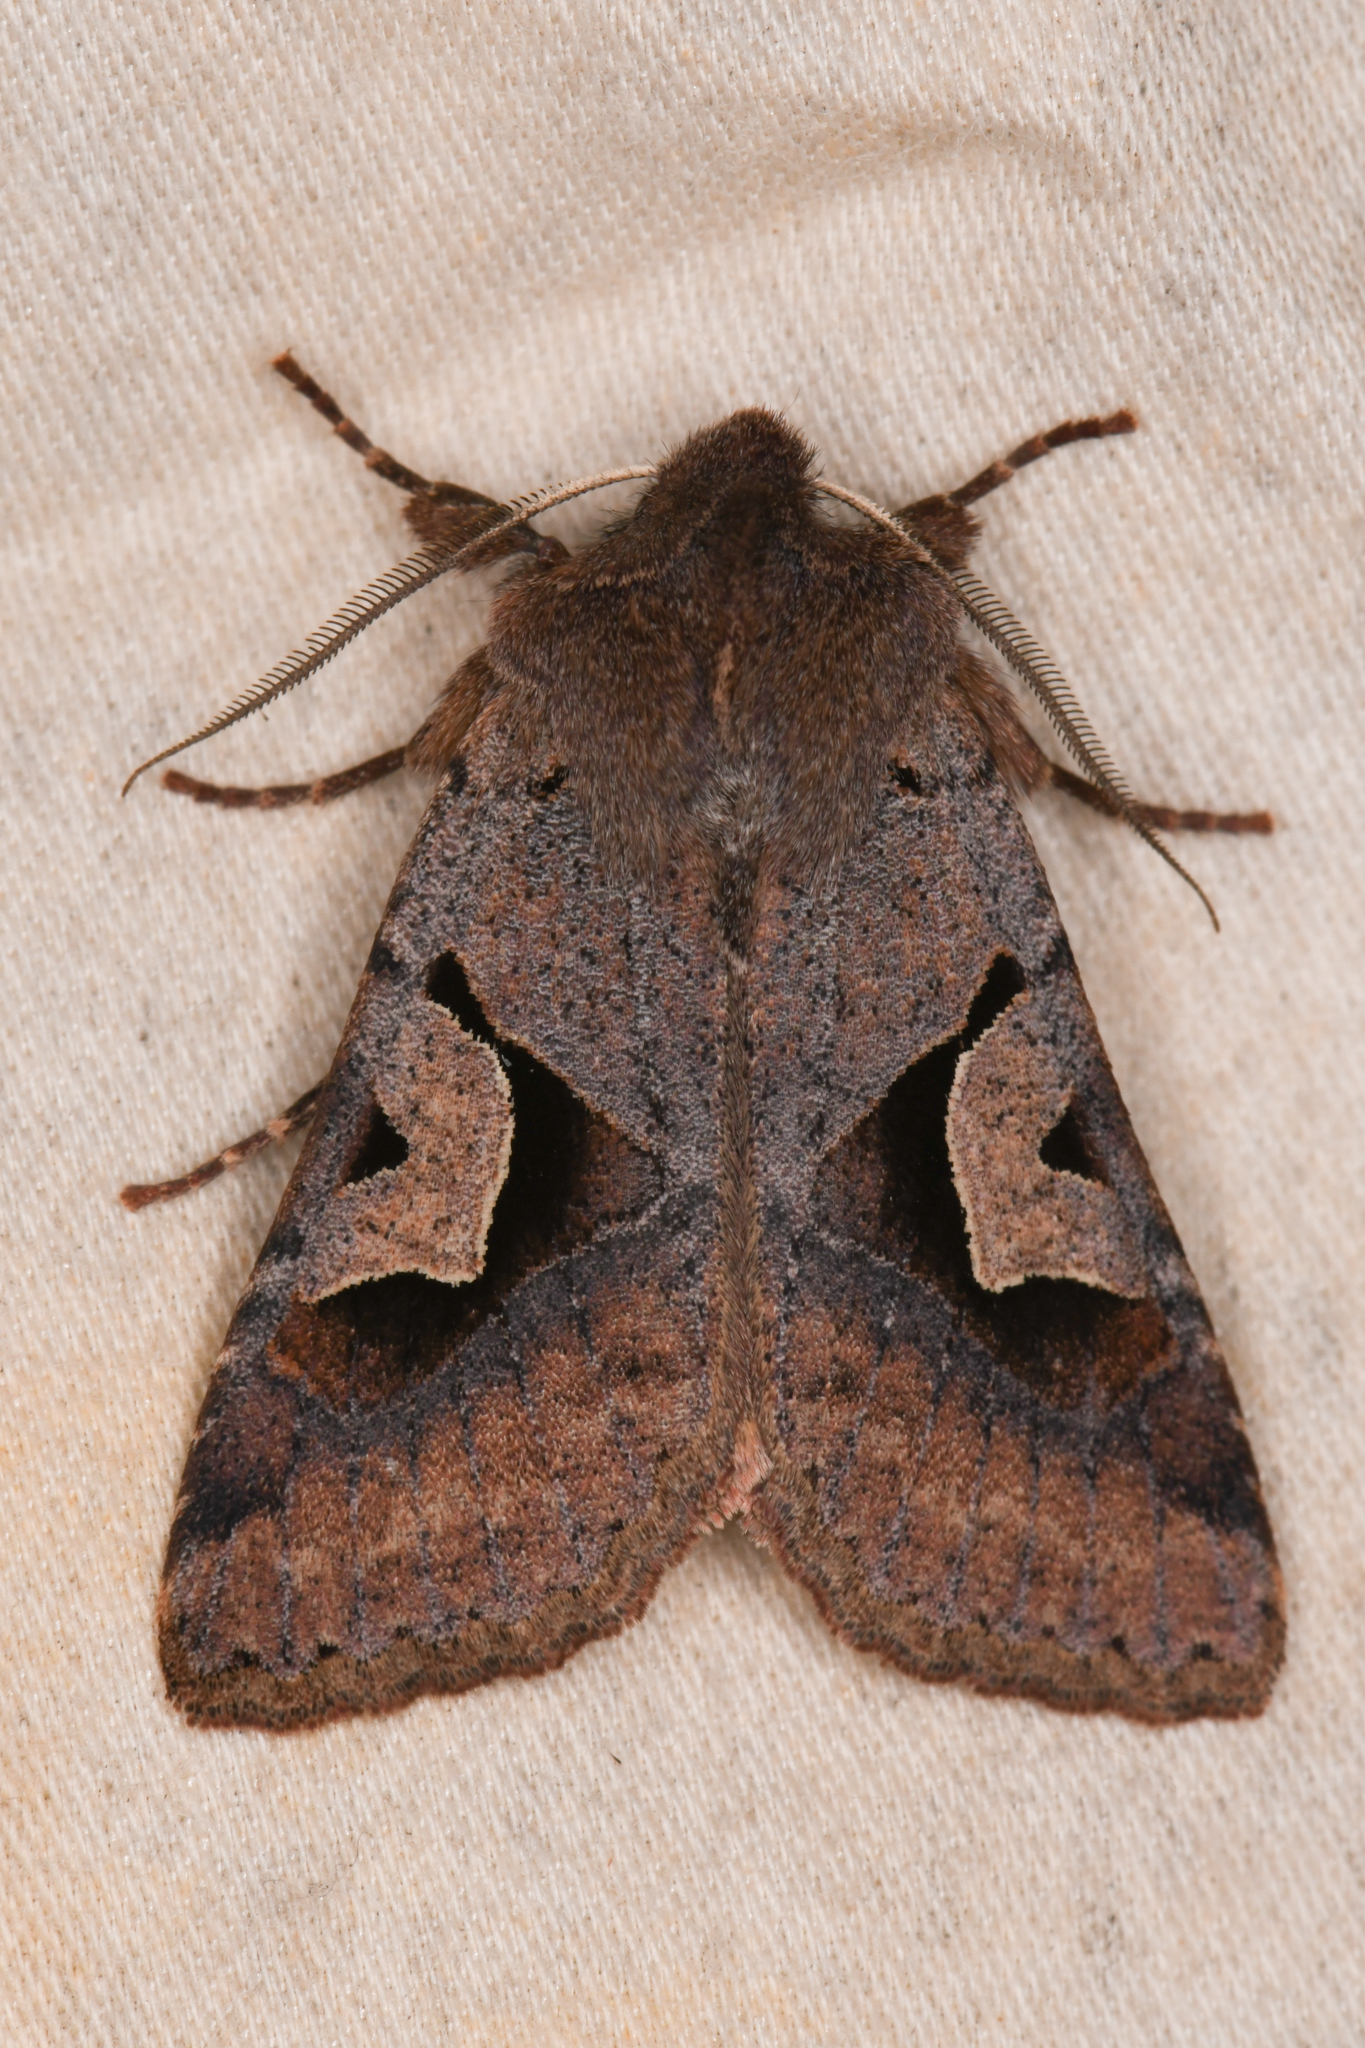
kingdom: Animalia
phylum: Arthropoda
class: Insecta
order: Lepidoptera
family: Noctuidae
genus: Acerra
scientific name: Acerra normalis
